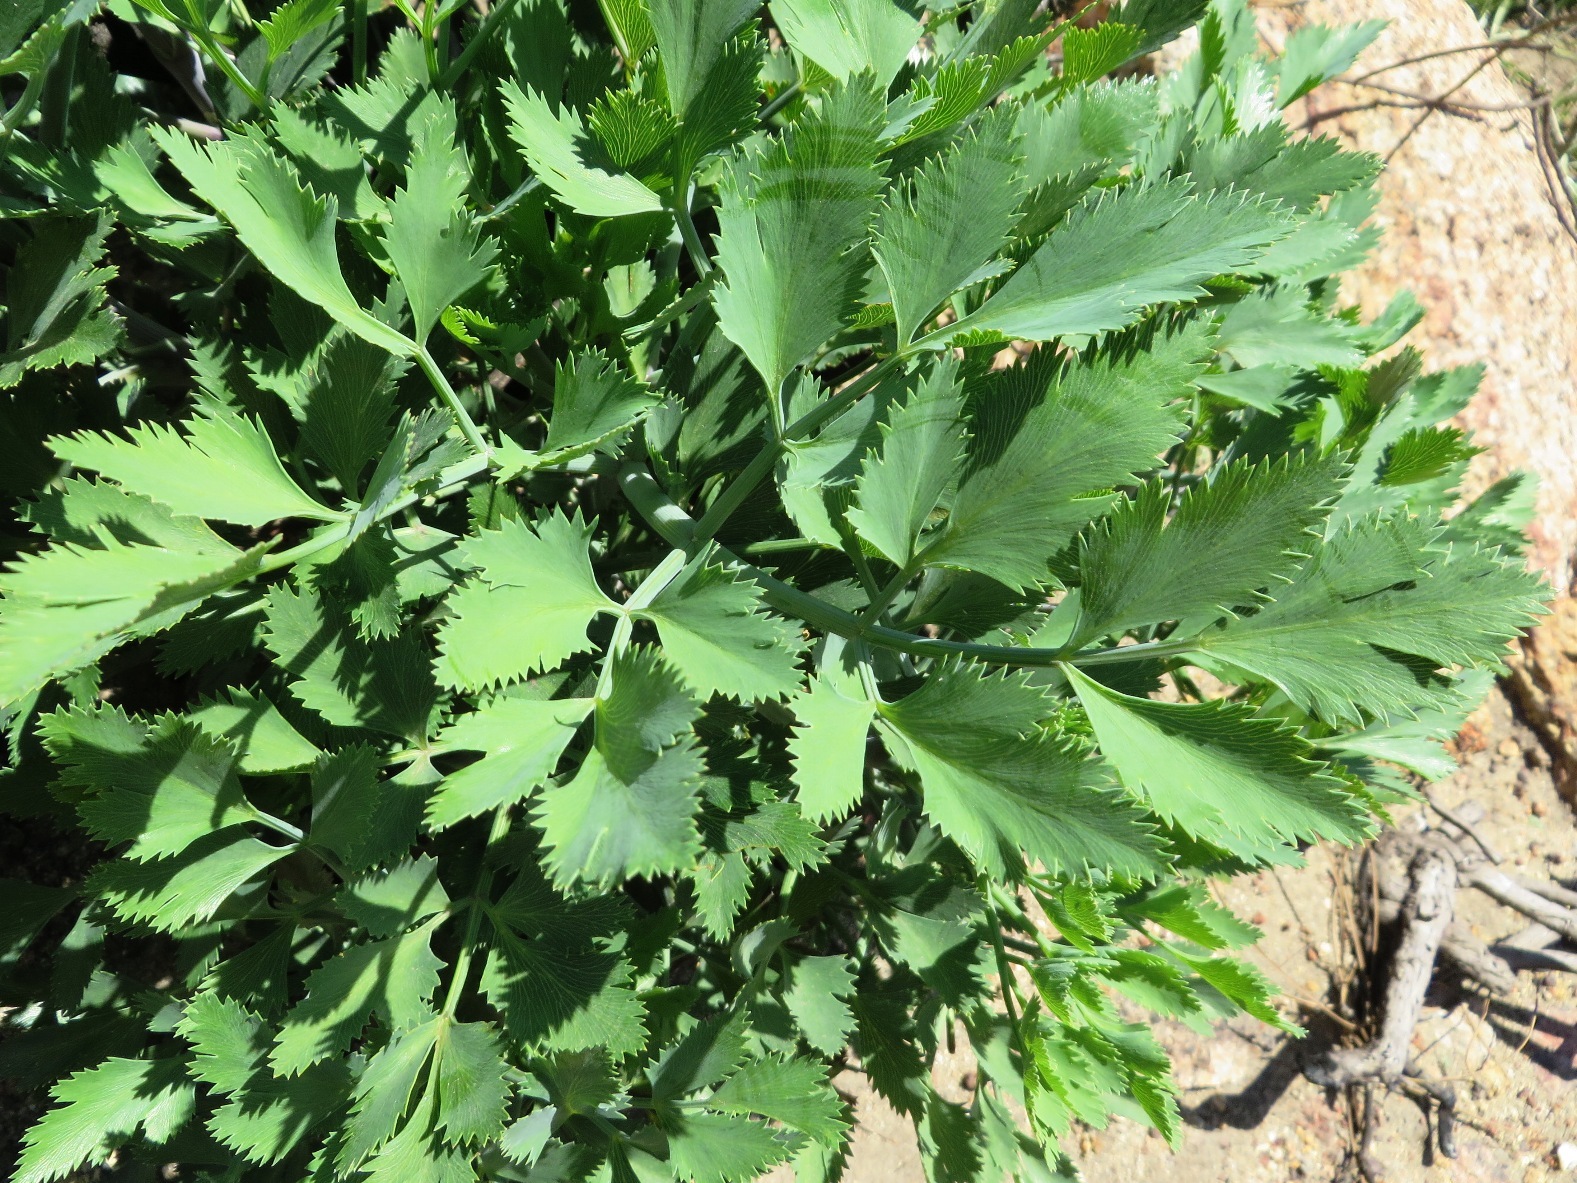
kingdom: Plantae
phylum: Tracheophyta
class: Magnoliopsida
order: Apiales
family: Apiaceae
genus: Notobubon
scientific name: Notobubon galbanum
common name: Blisterbush
